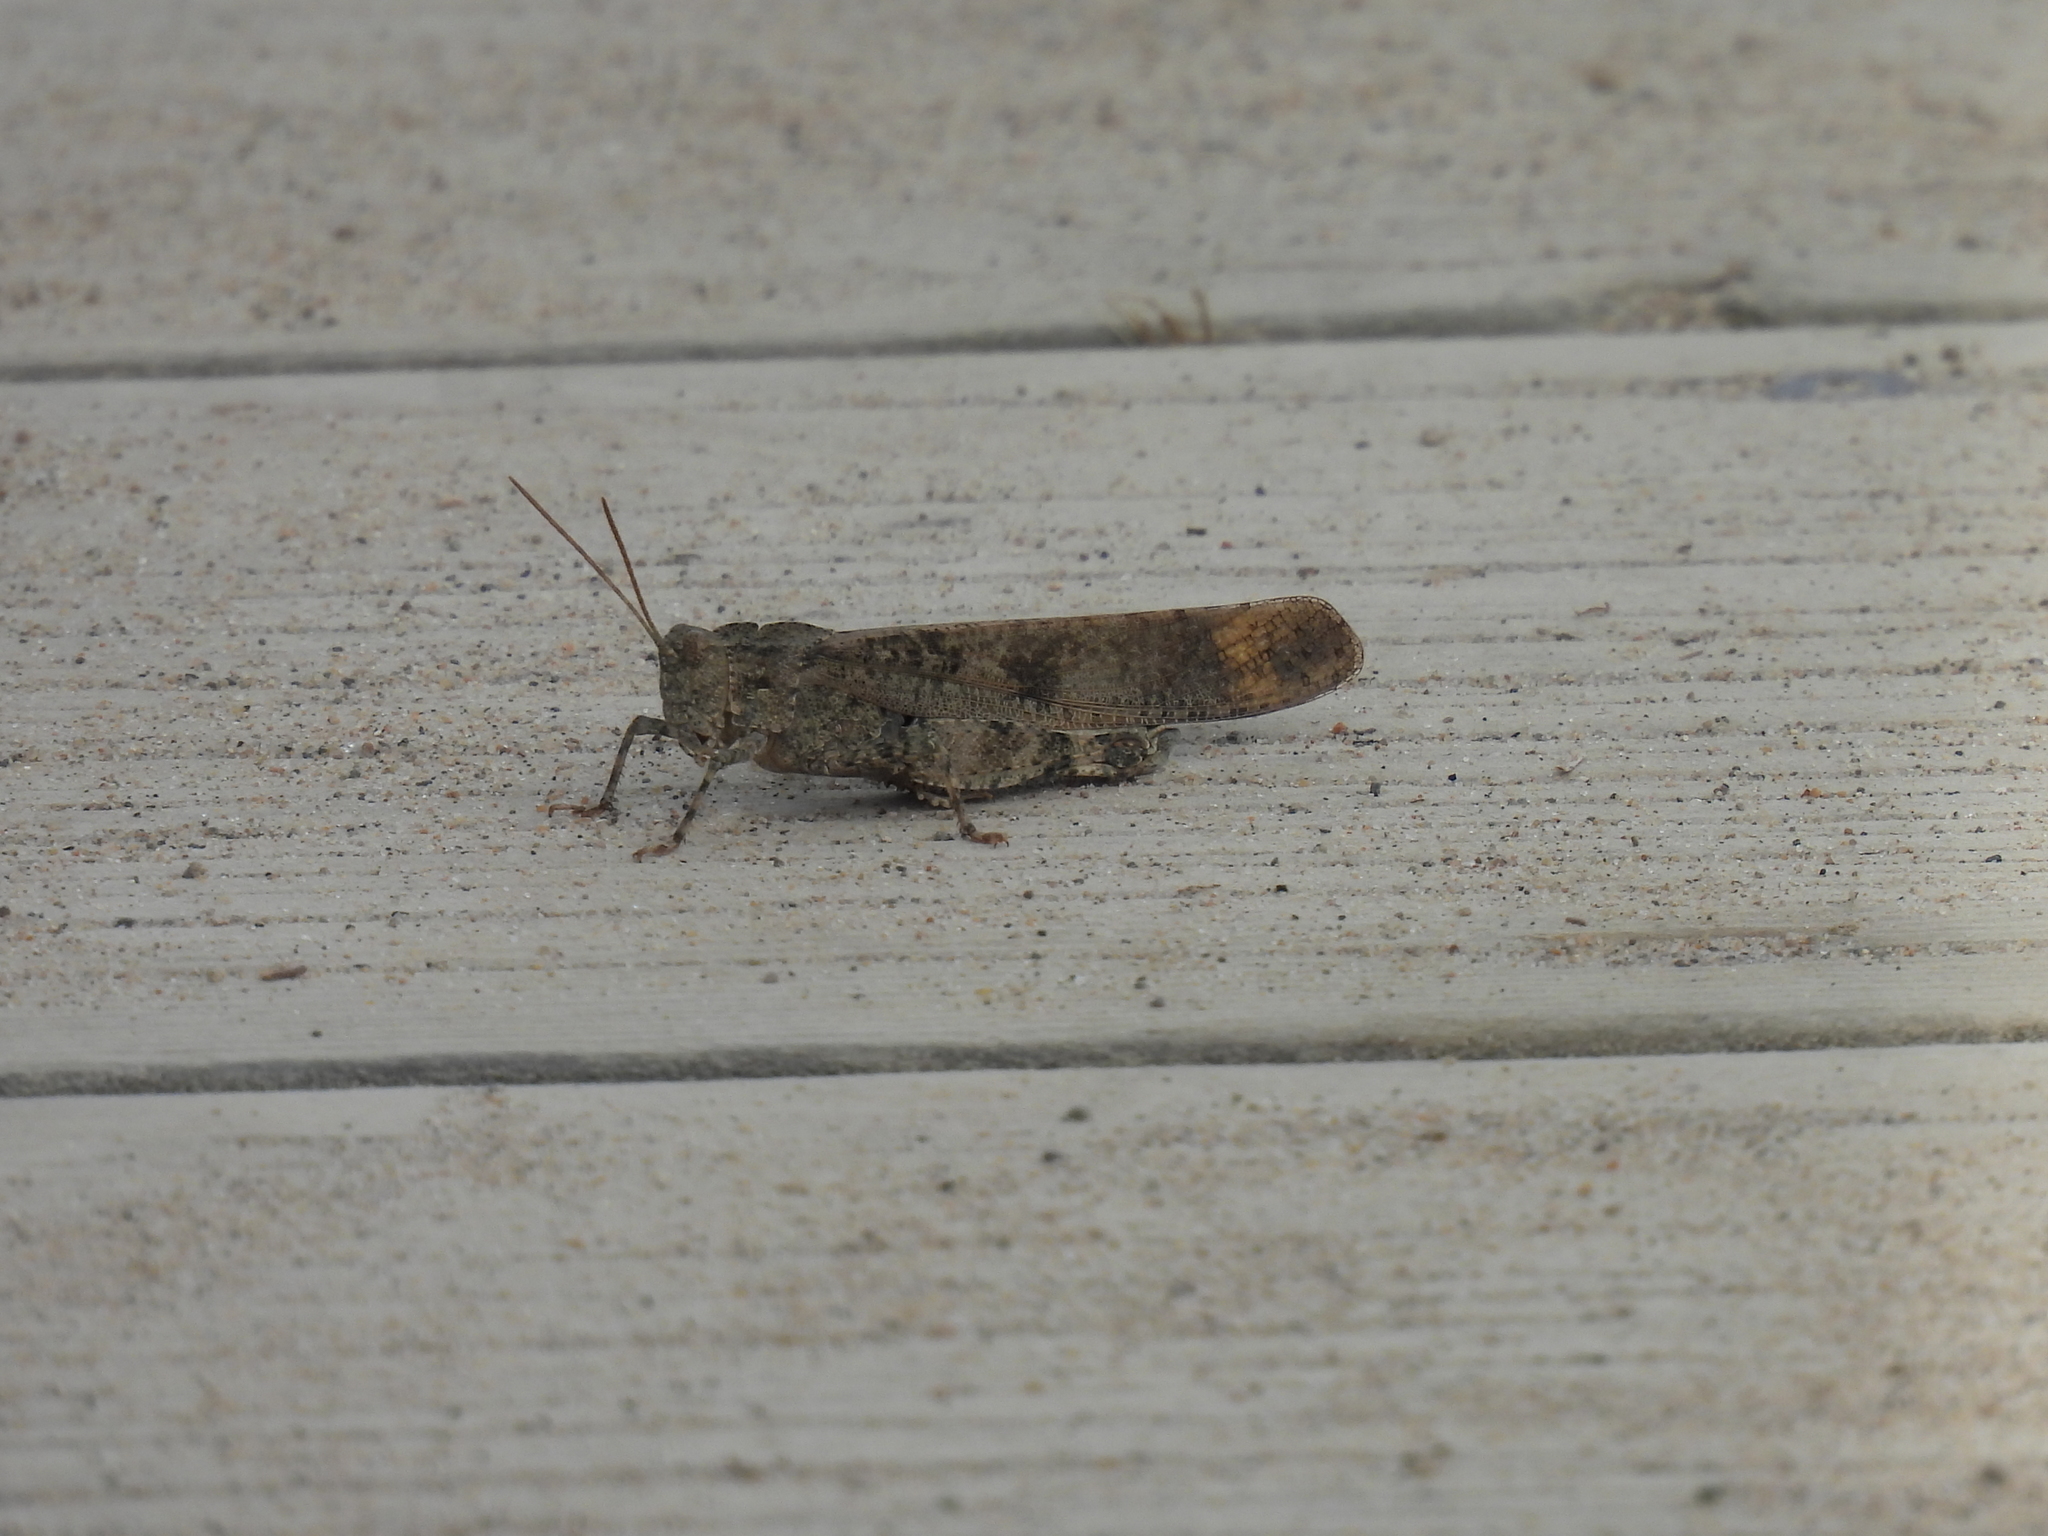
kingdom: Animalia
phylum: Arthropoda
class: Insecta
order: Orthoptera
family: Acrididae
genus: Dissosteira
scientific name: Dissosteira carolina
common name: Carolina grasshopper
